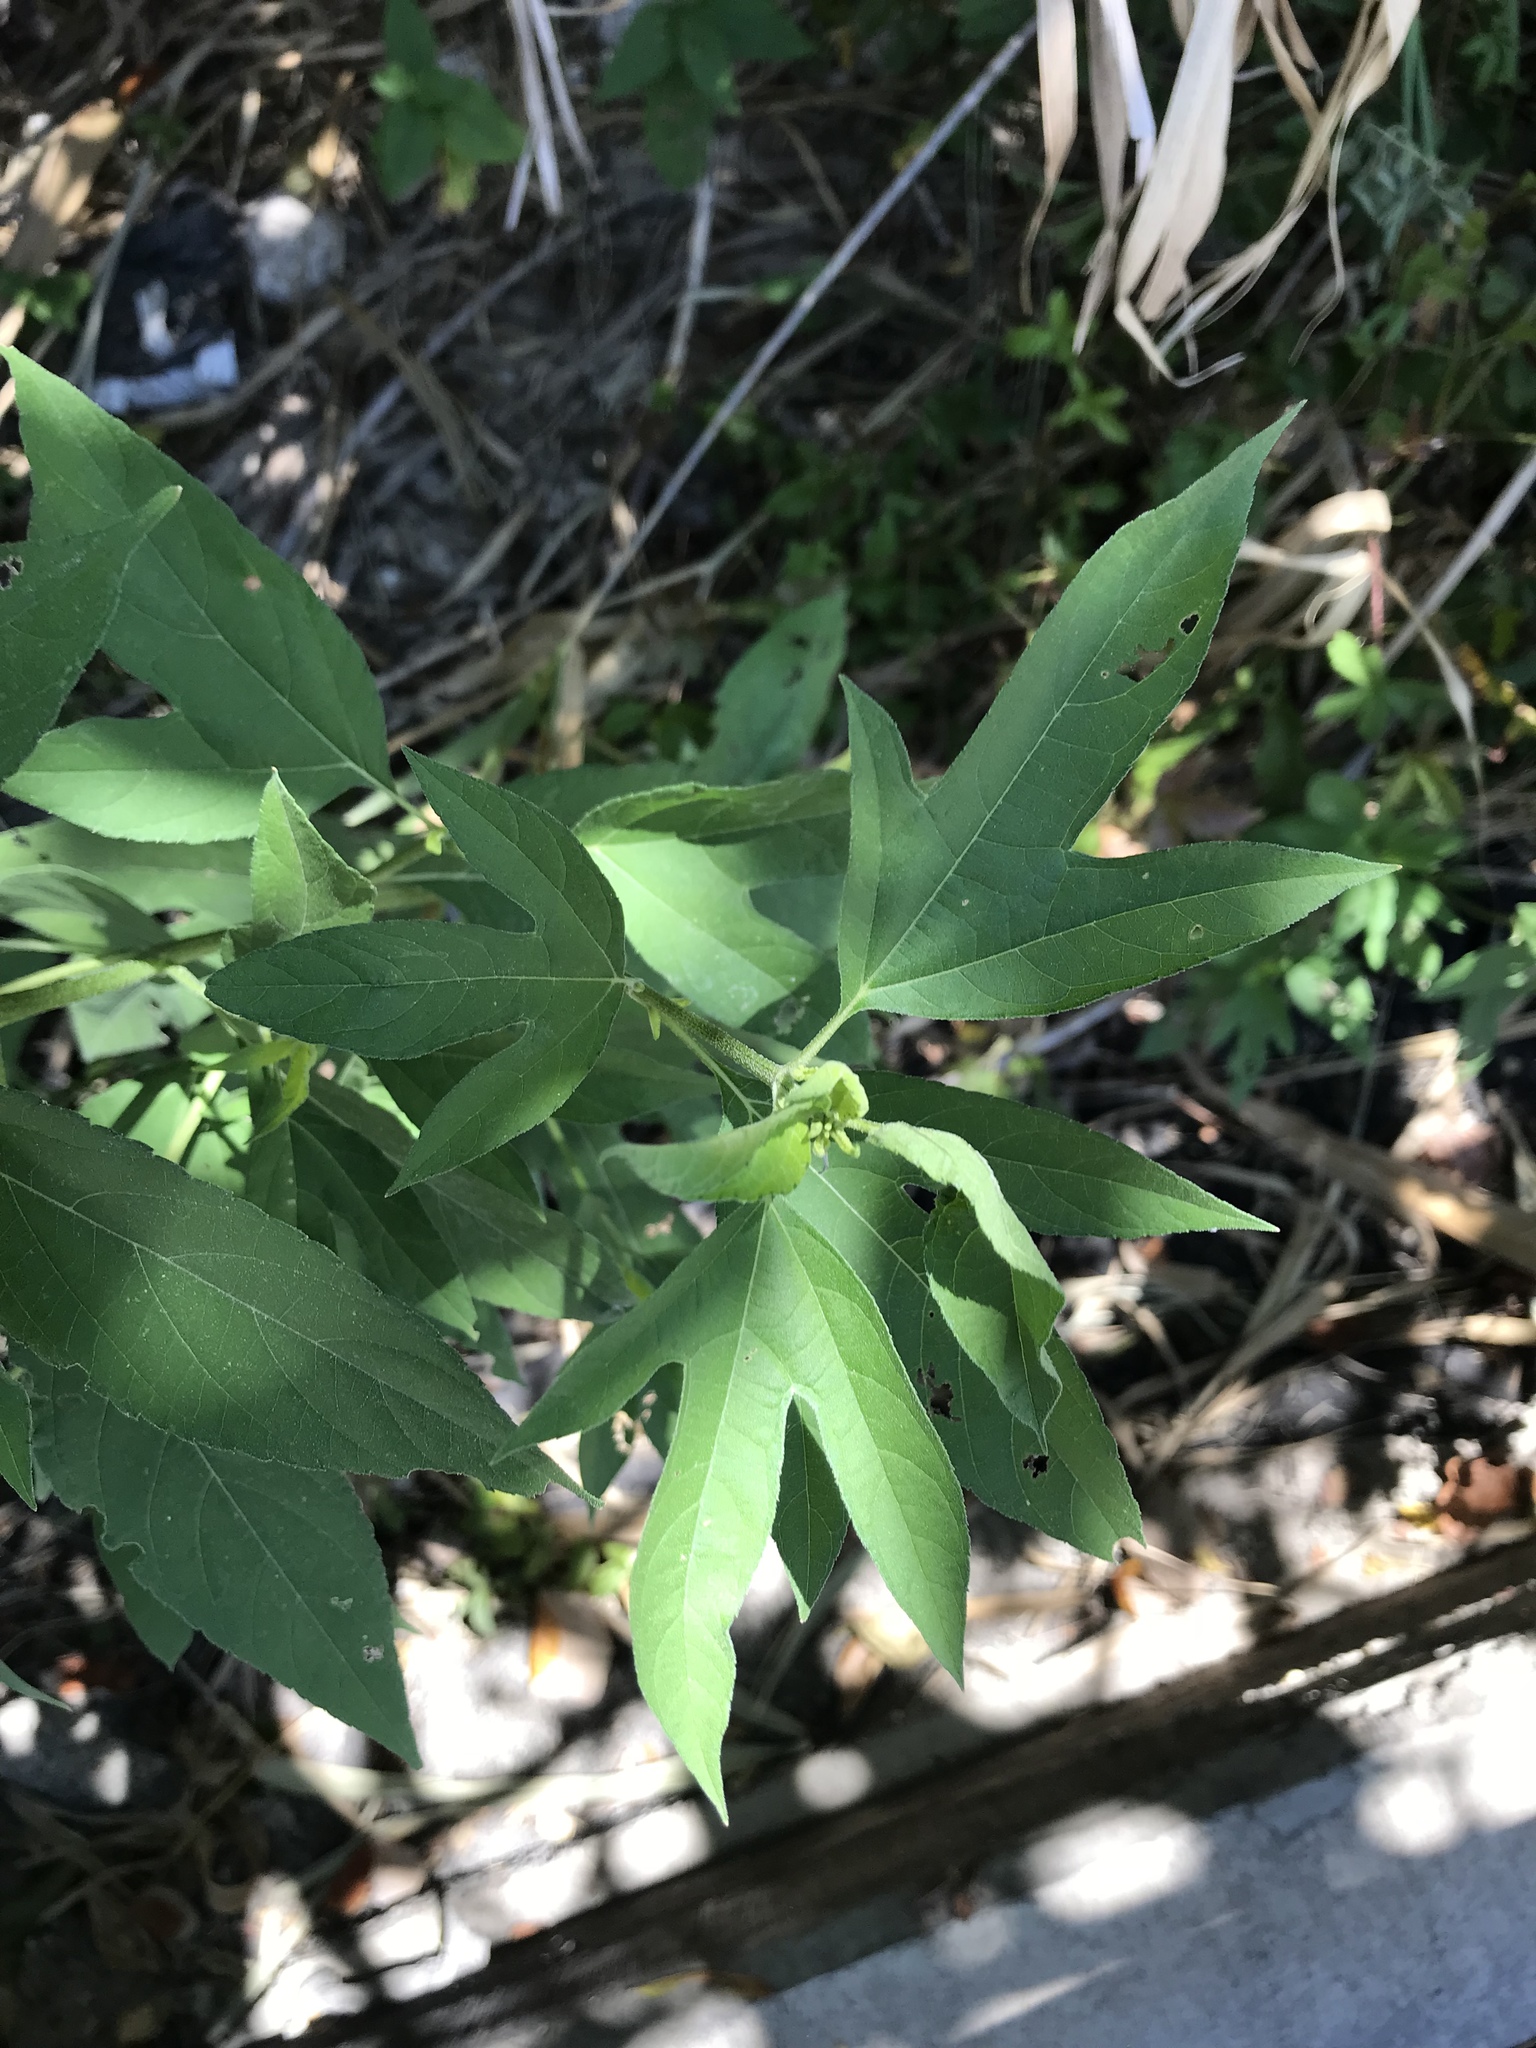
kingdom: Plantae
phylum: Tracheophyta
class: Magnoliopsida
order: Asterales
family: Asteraceae
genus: Ambrosia
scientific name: Ambrosia trifida
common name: Giant ragweed
